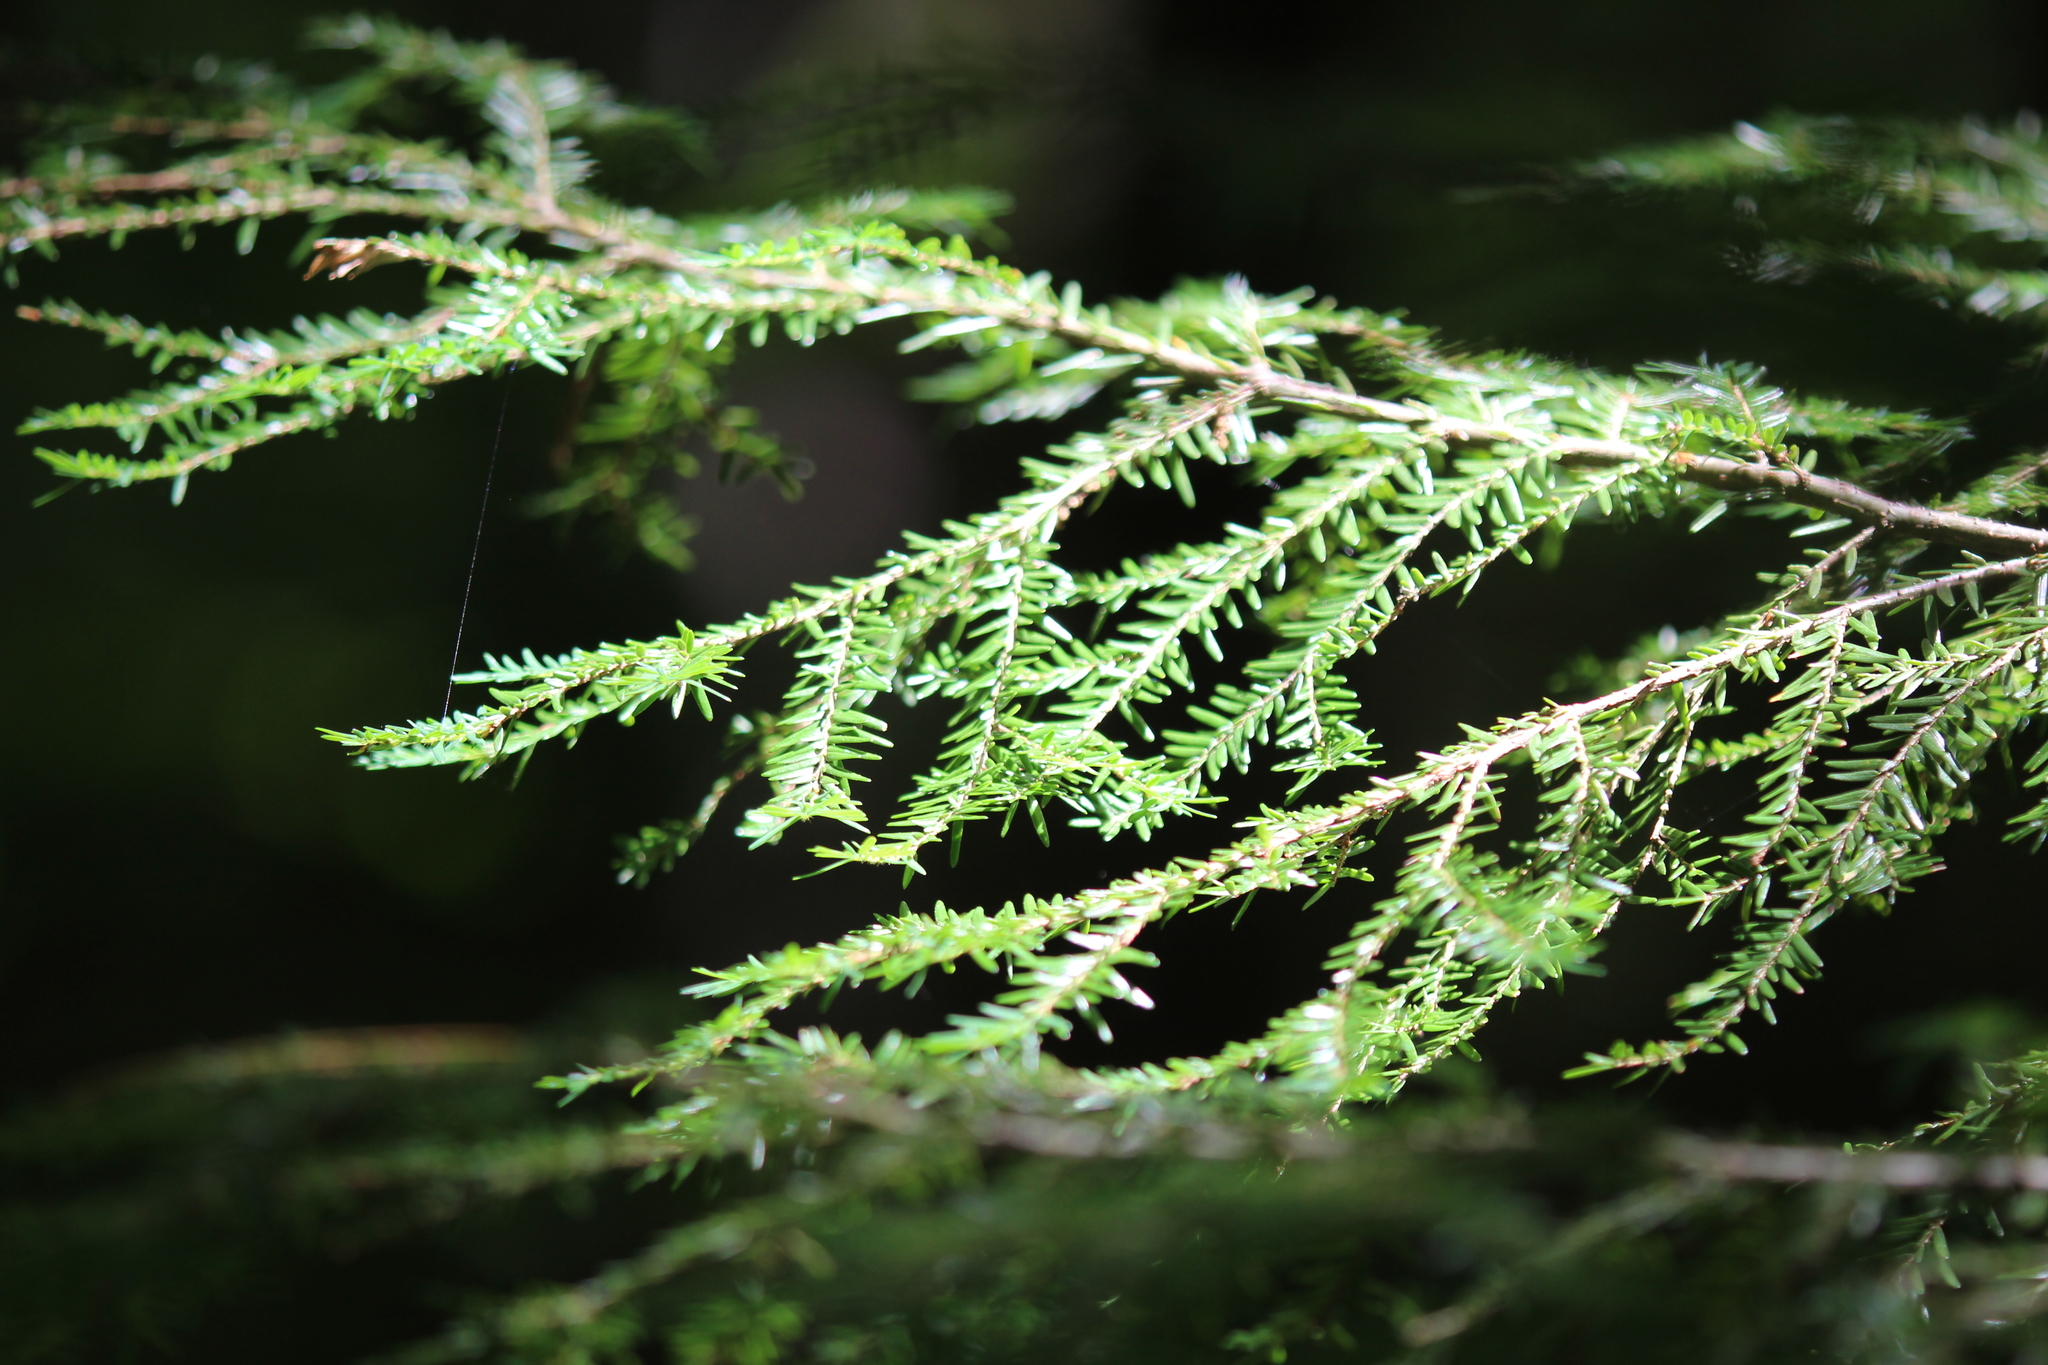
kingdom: Plantae
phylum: Tracheophyta
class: Pinopsida
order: Pinales
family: Pinaceae
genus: Tsuga
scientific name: Tsuga canadensis
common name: Eastern hemlock
